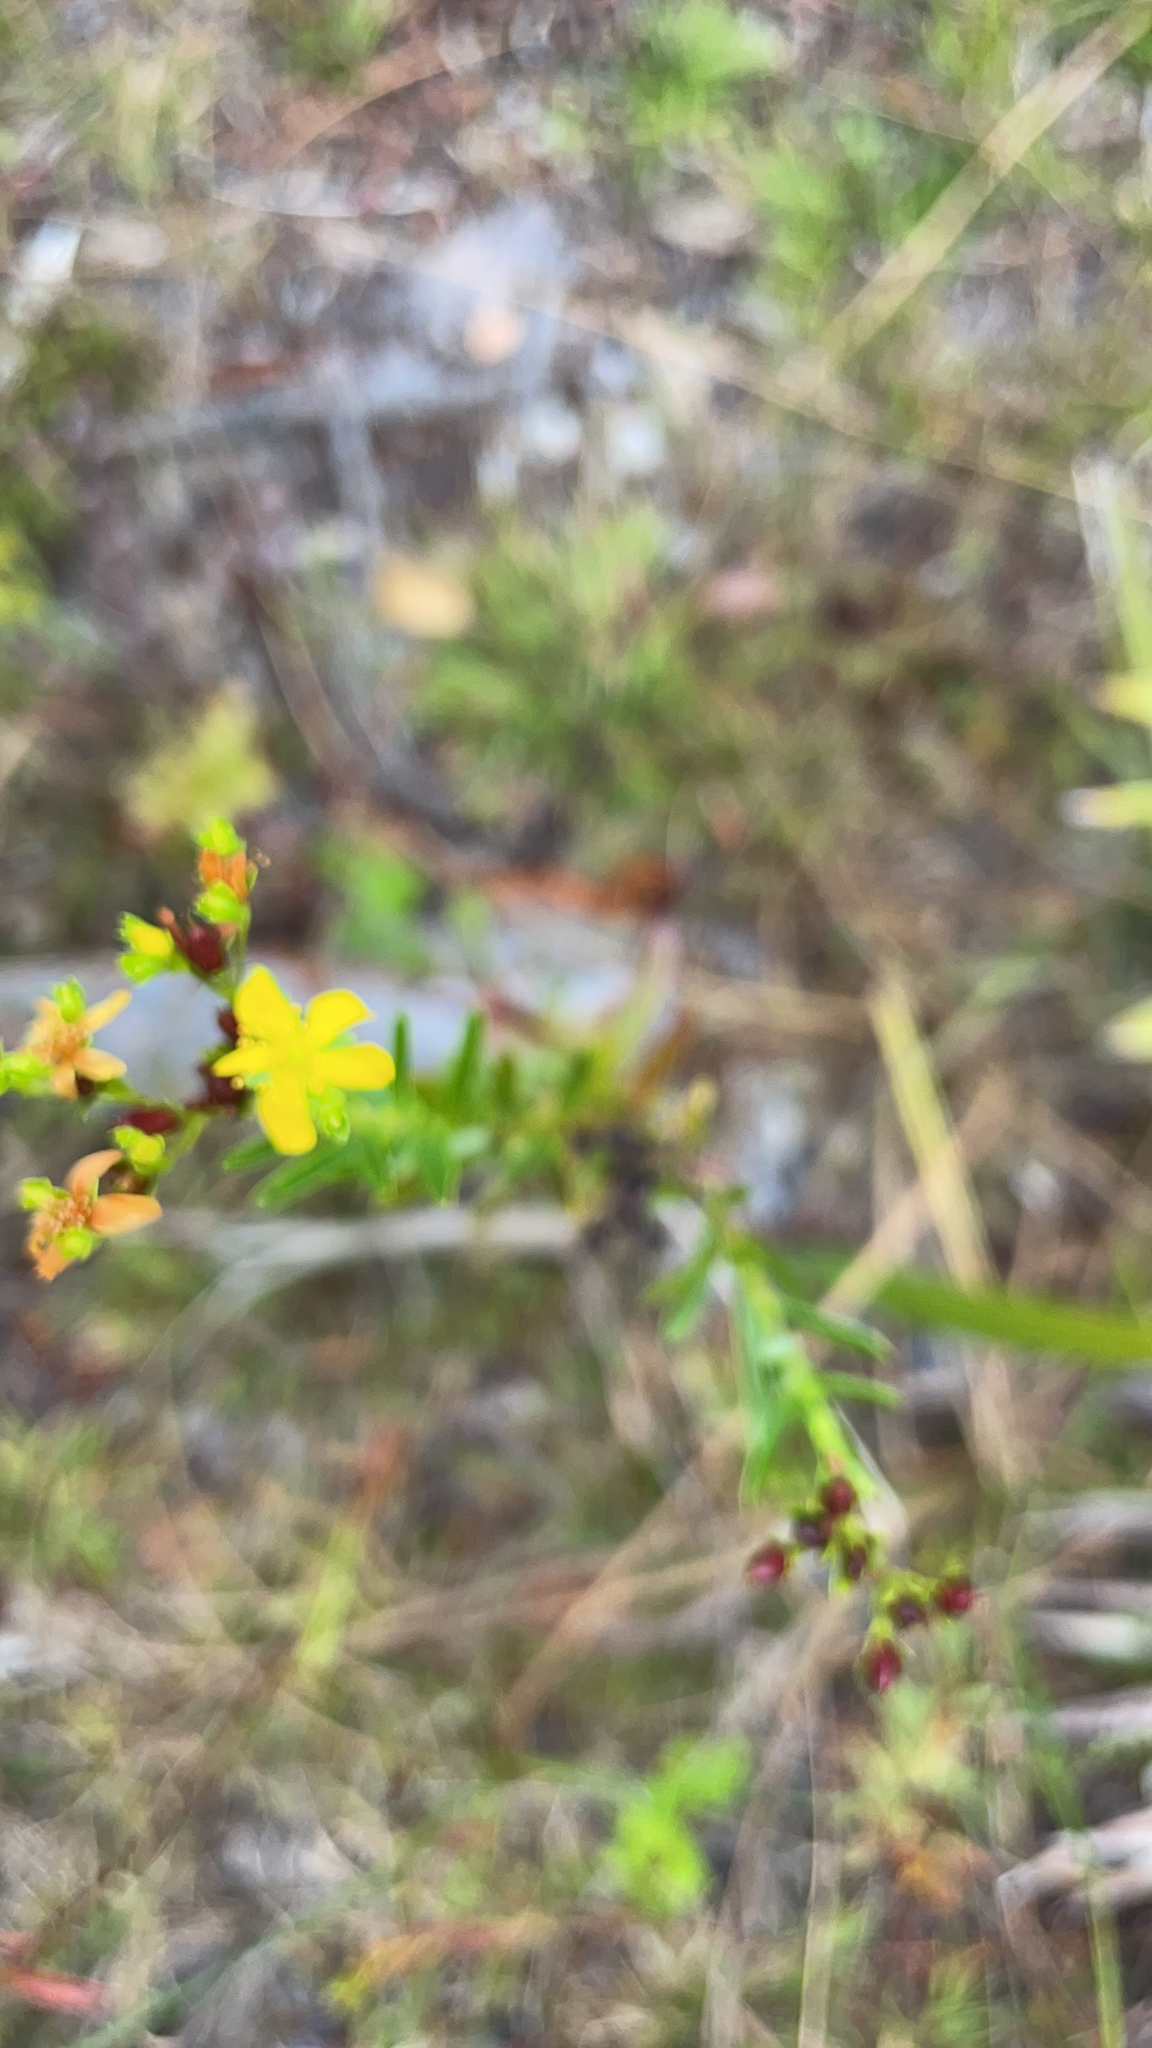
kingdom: Plantae
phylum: Tracheophyta
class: Magnoliopsida
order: Malpighiales
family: Hypericaceae
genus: Hypericum
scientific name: Hypericum cistifolium
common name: Round-pod st. john's-wort
